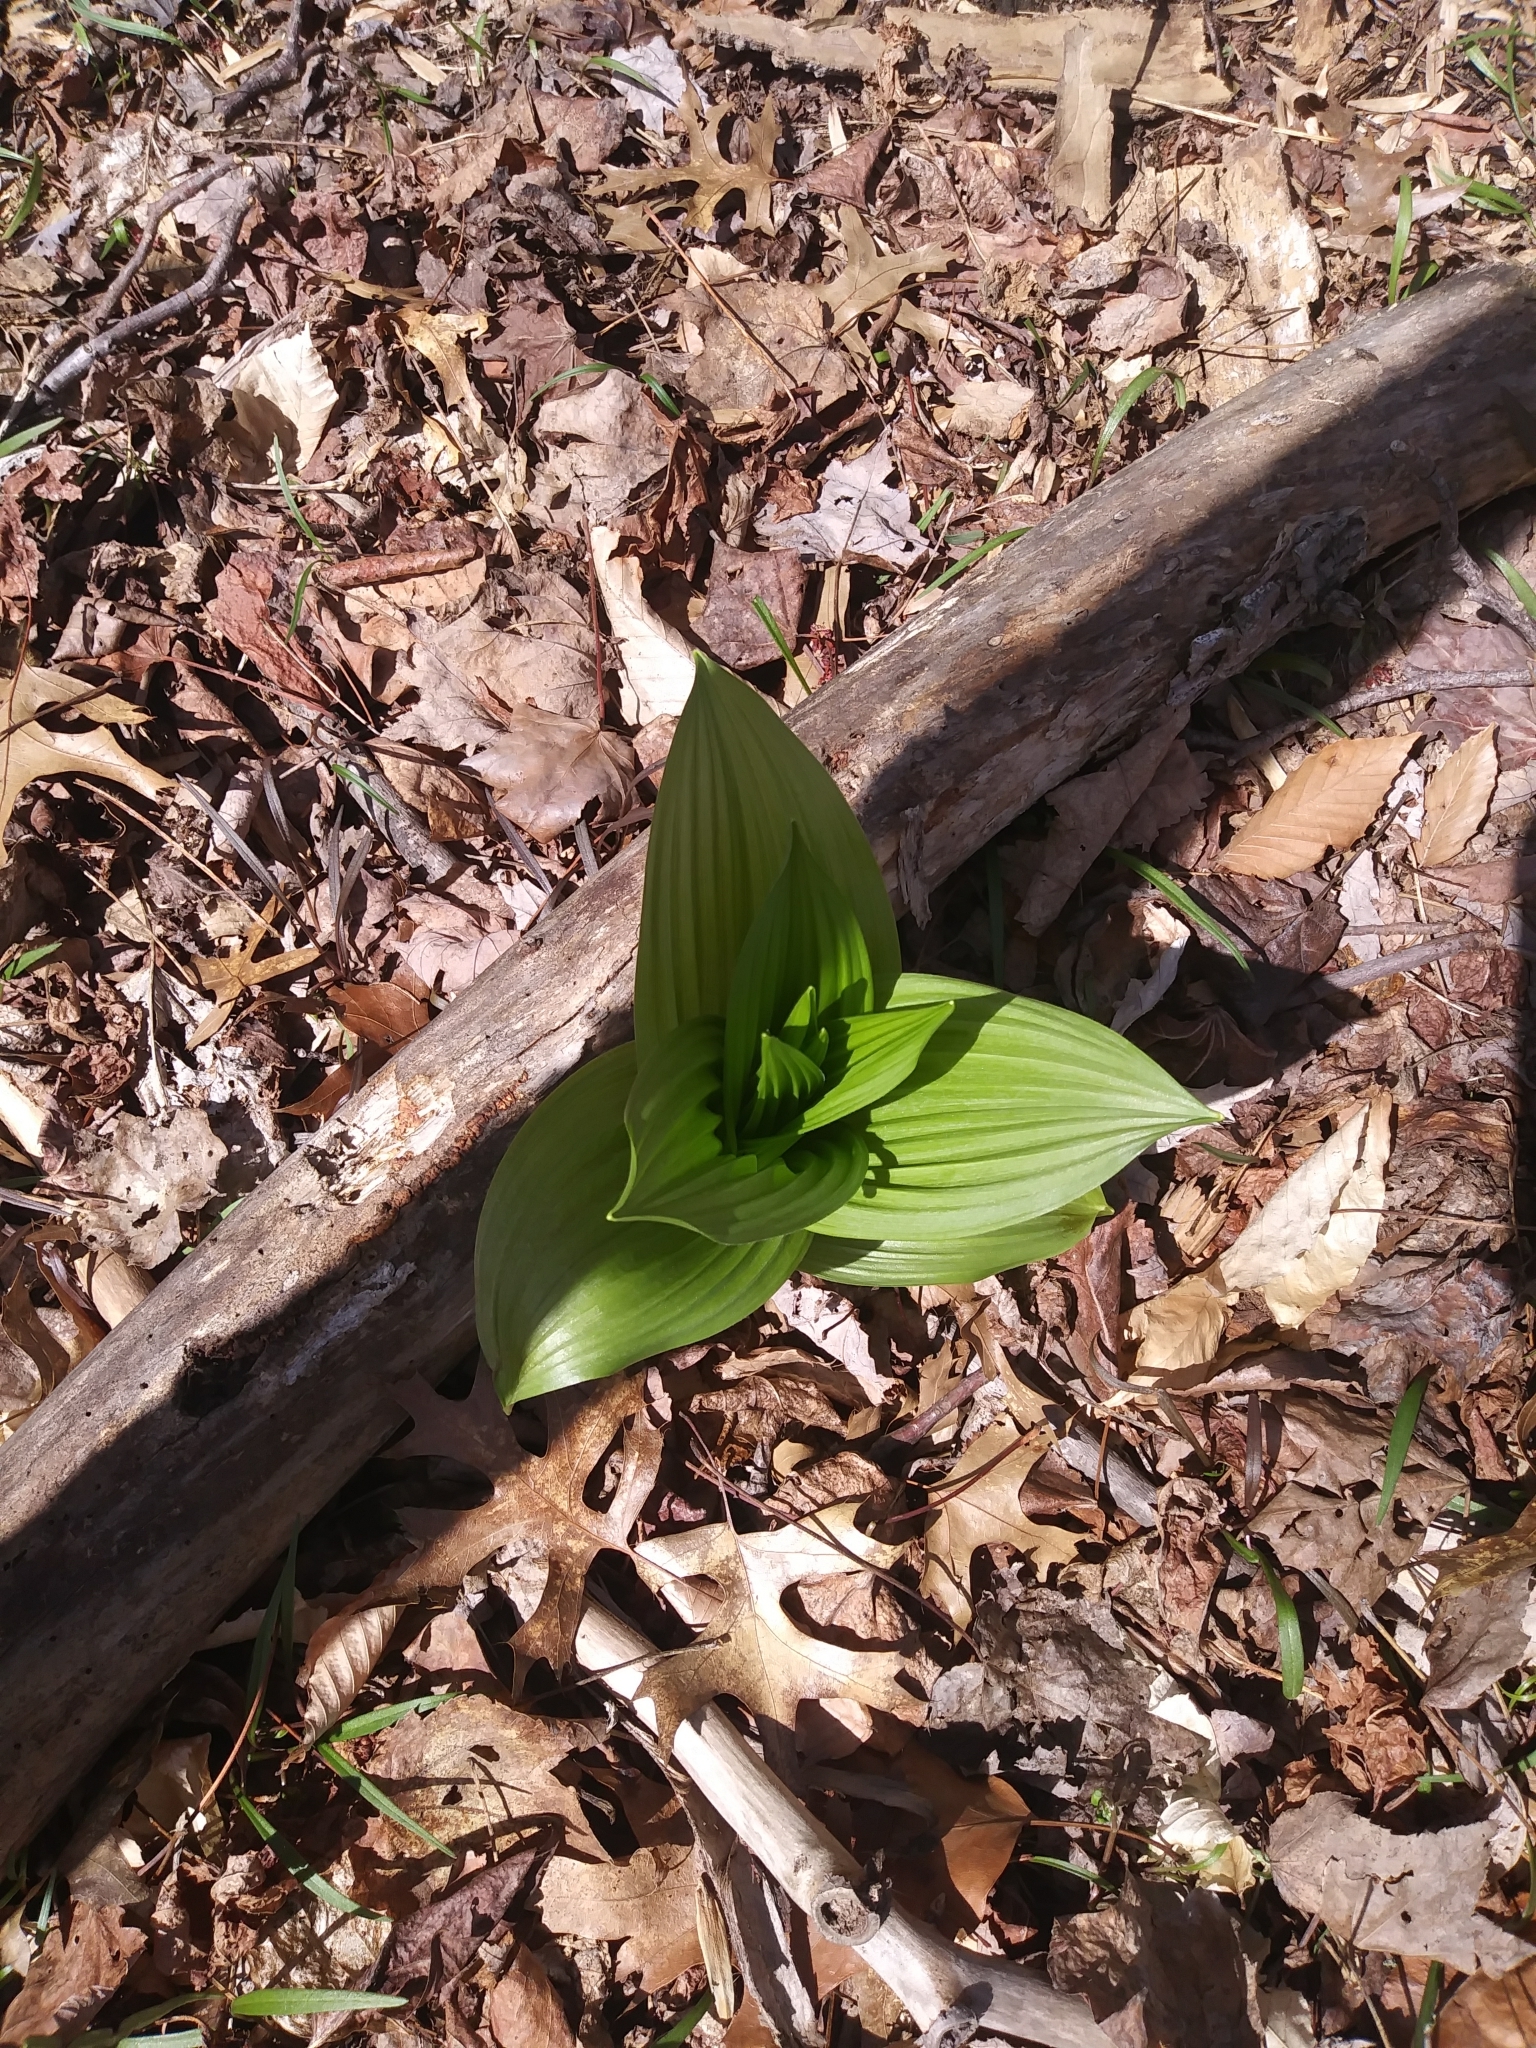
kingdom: Plantae
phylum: Tracheophyta
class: Liliopsida
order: Liliales
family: Melanthiaceae
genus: Veratrum
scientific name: Veratrum viride
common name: American false hellebore
